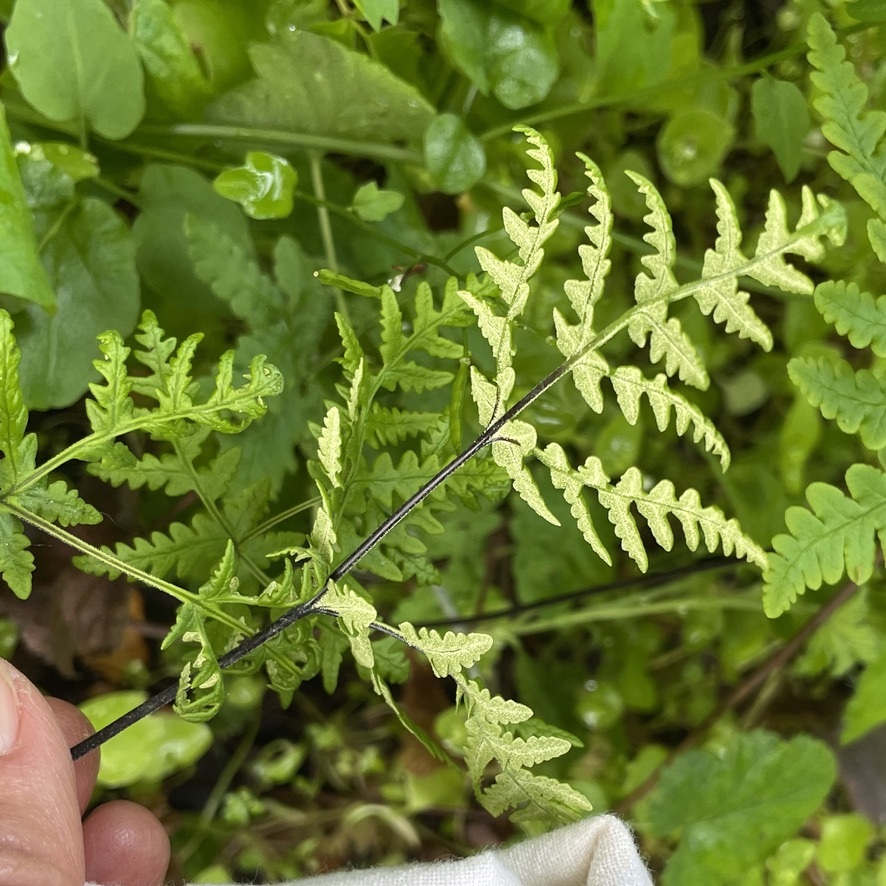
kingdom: Plantae
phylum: Tracheophyta
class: Polypodiopsida
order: Polypodiales
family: Pteridaceae
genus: Pentagramma
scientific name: Pentagramma triangularis
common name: Gold fern
